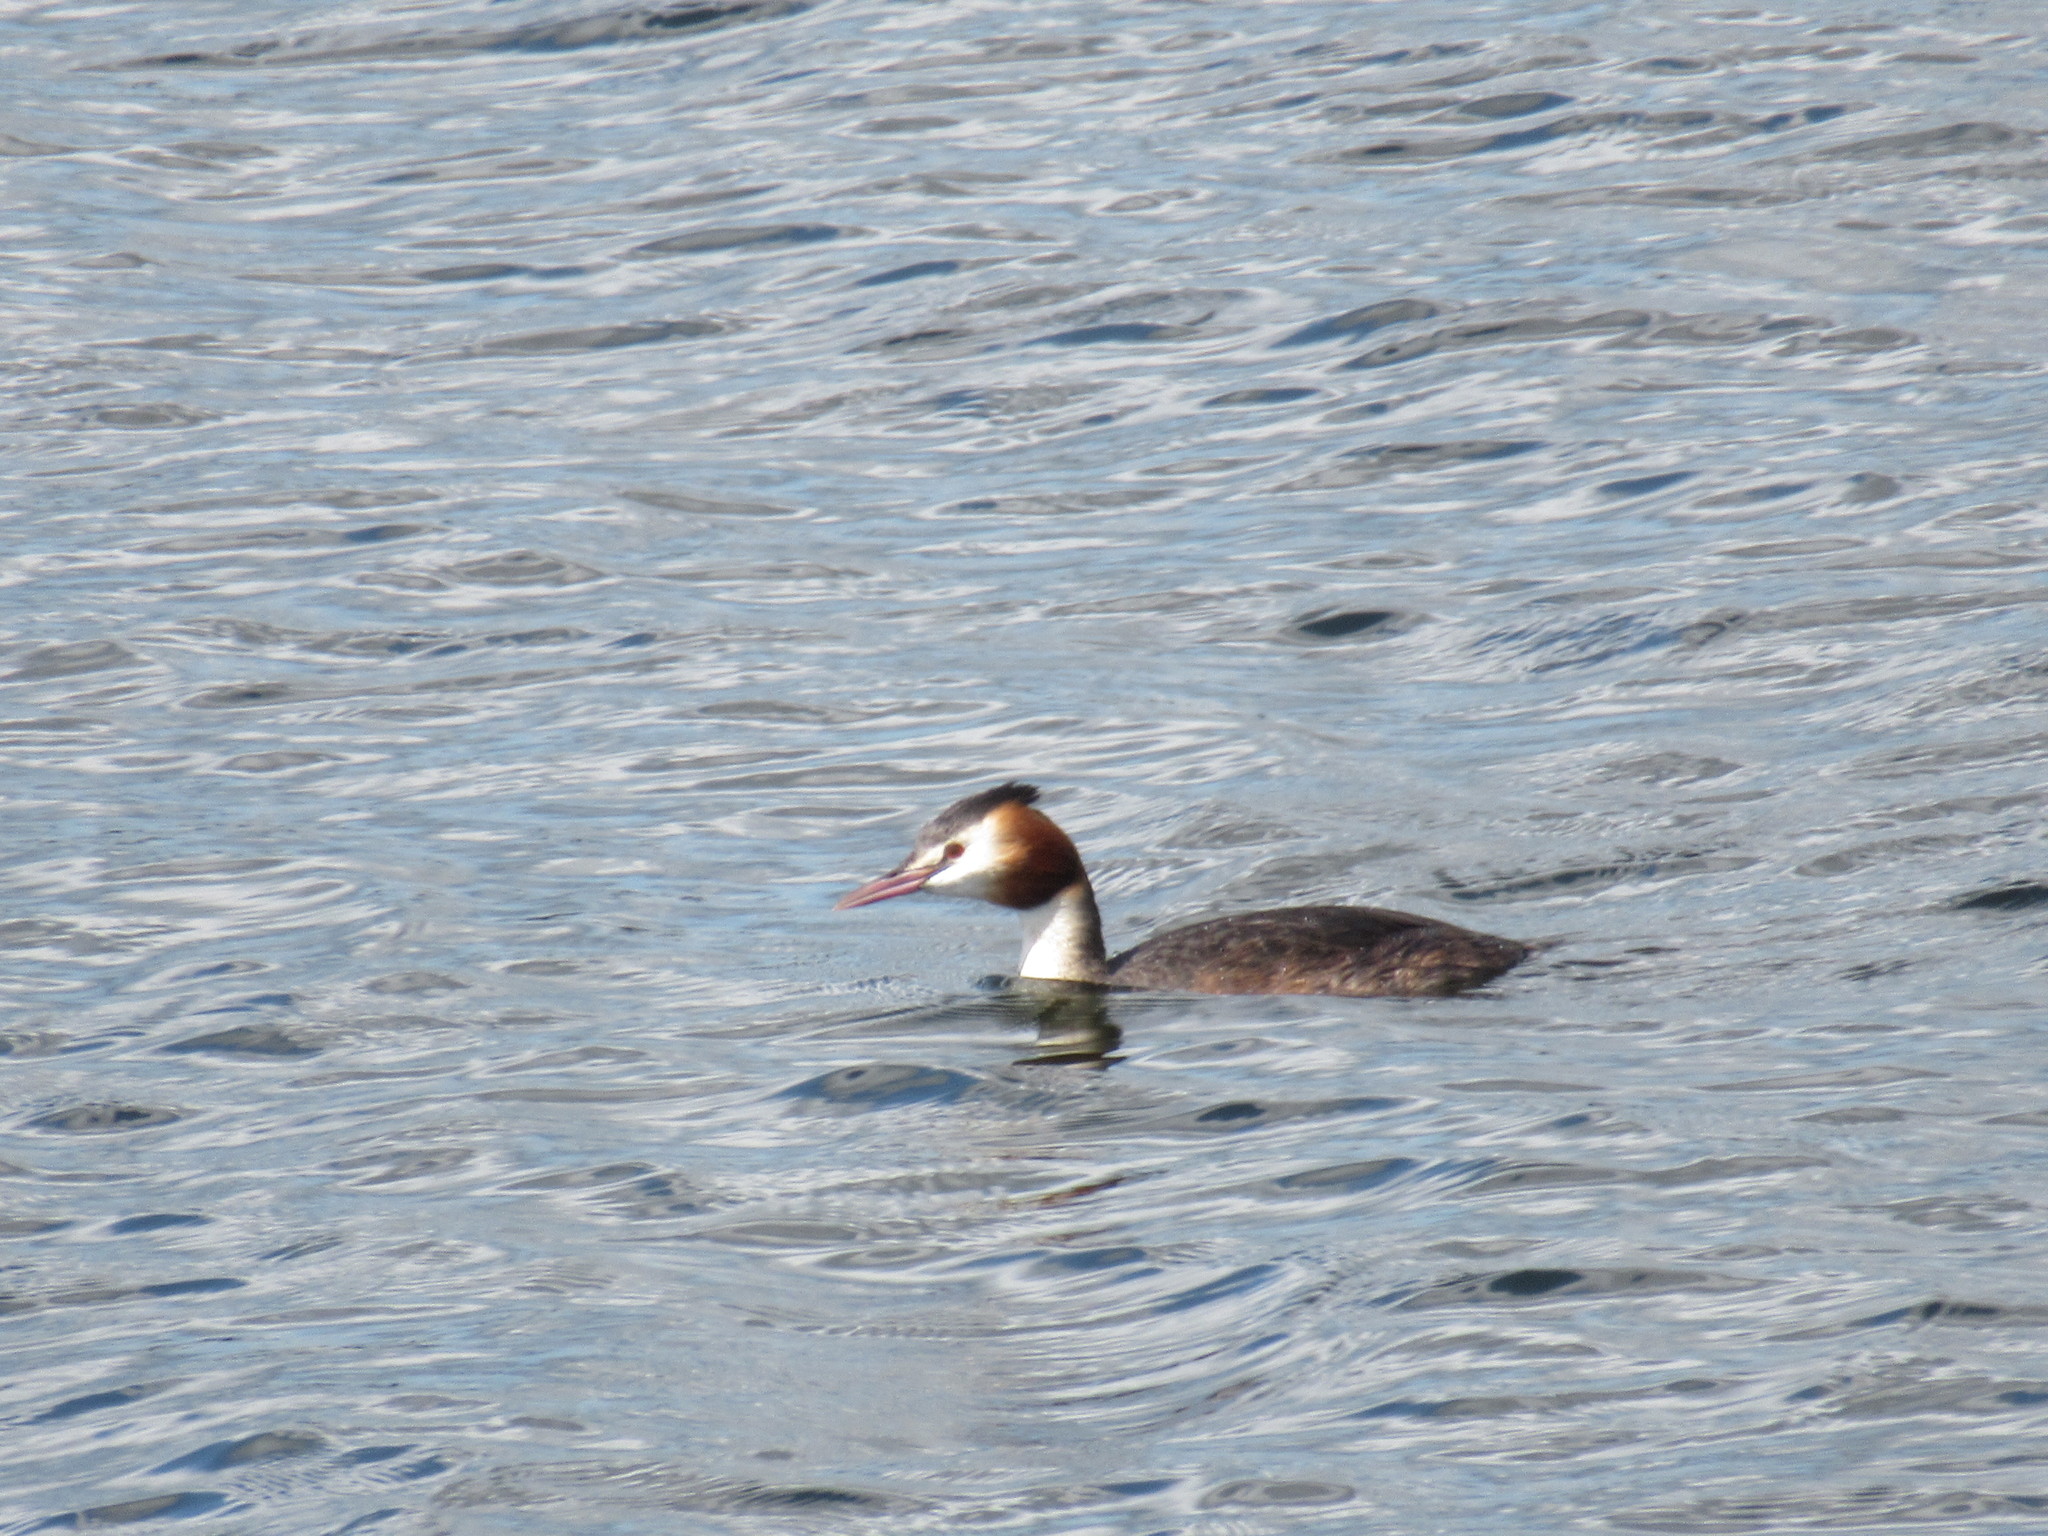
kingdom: Animalia
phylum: Chordata
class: Aves
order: Podicipediformes
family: Podicipedidae
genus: Podiceps
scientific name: Podiceps cristatus
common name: Great crested grebe
